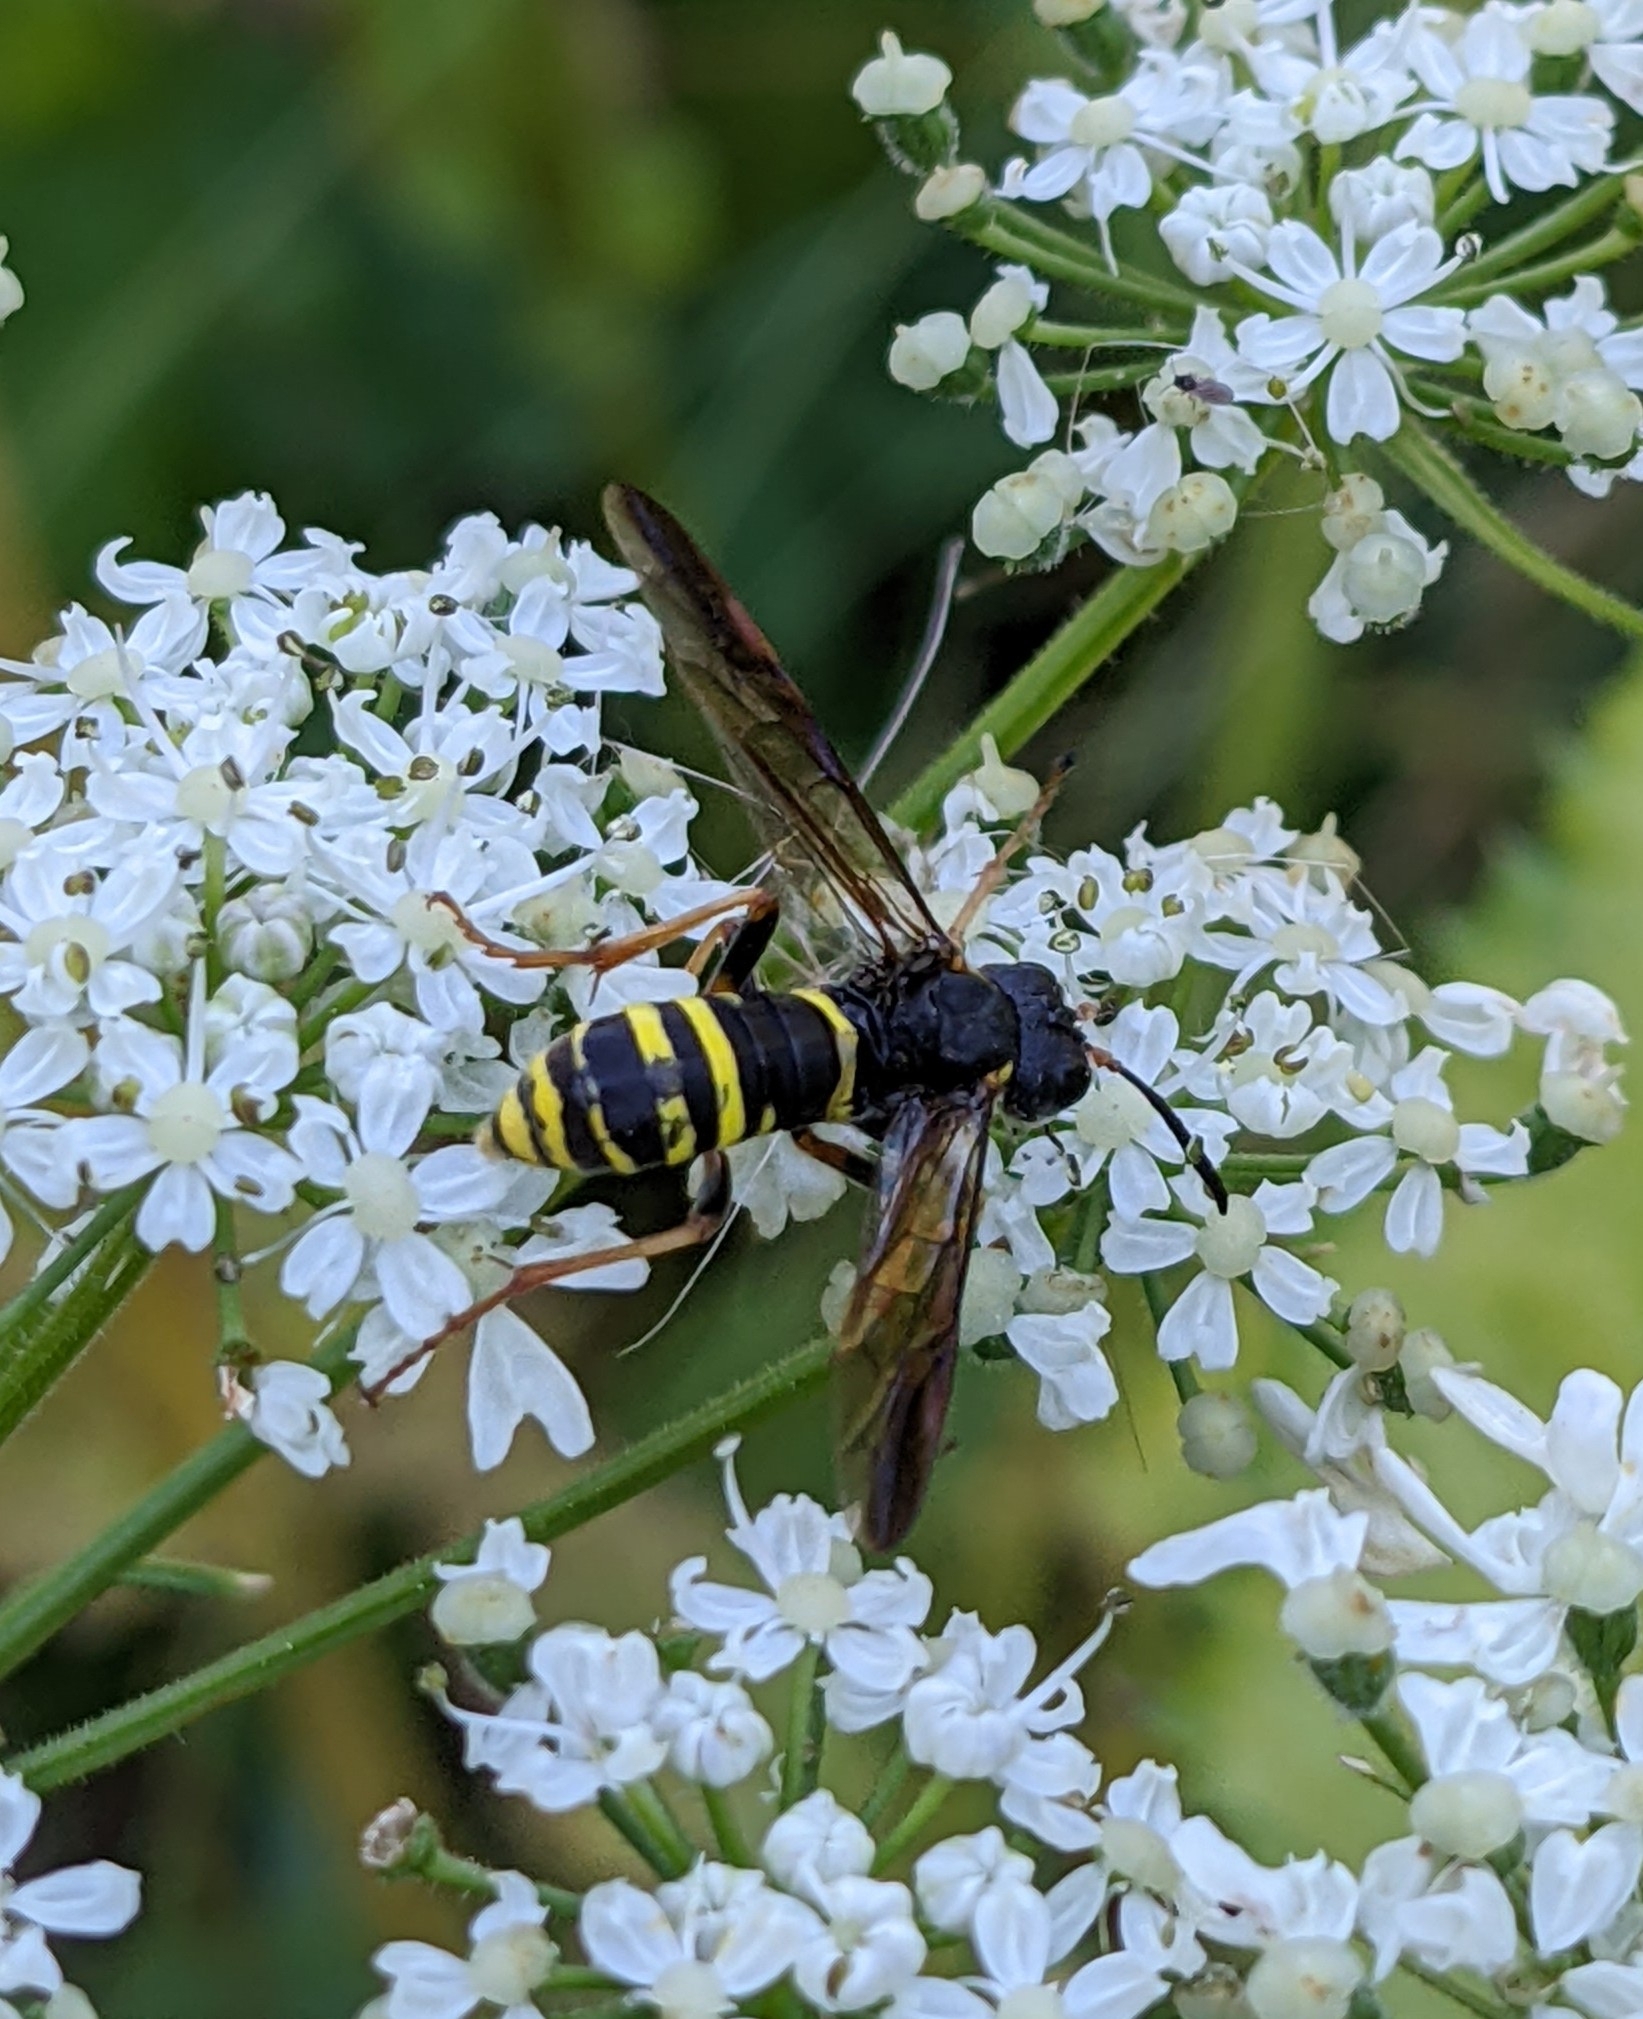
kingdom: Animalia
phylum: Arthropoda
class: Insecta
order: Hymenoptera
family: Tenthredinidae
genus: Tenthredo
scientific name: Tenthredo vespa
